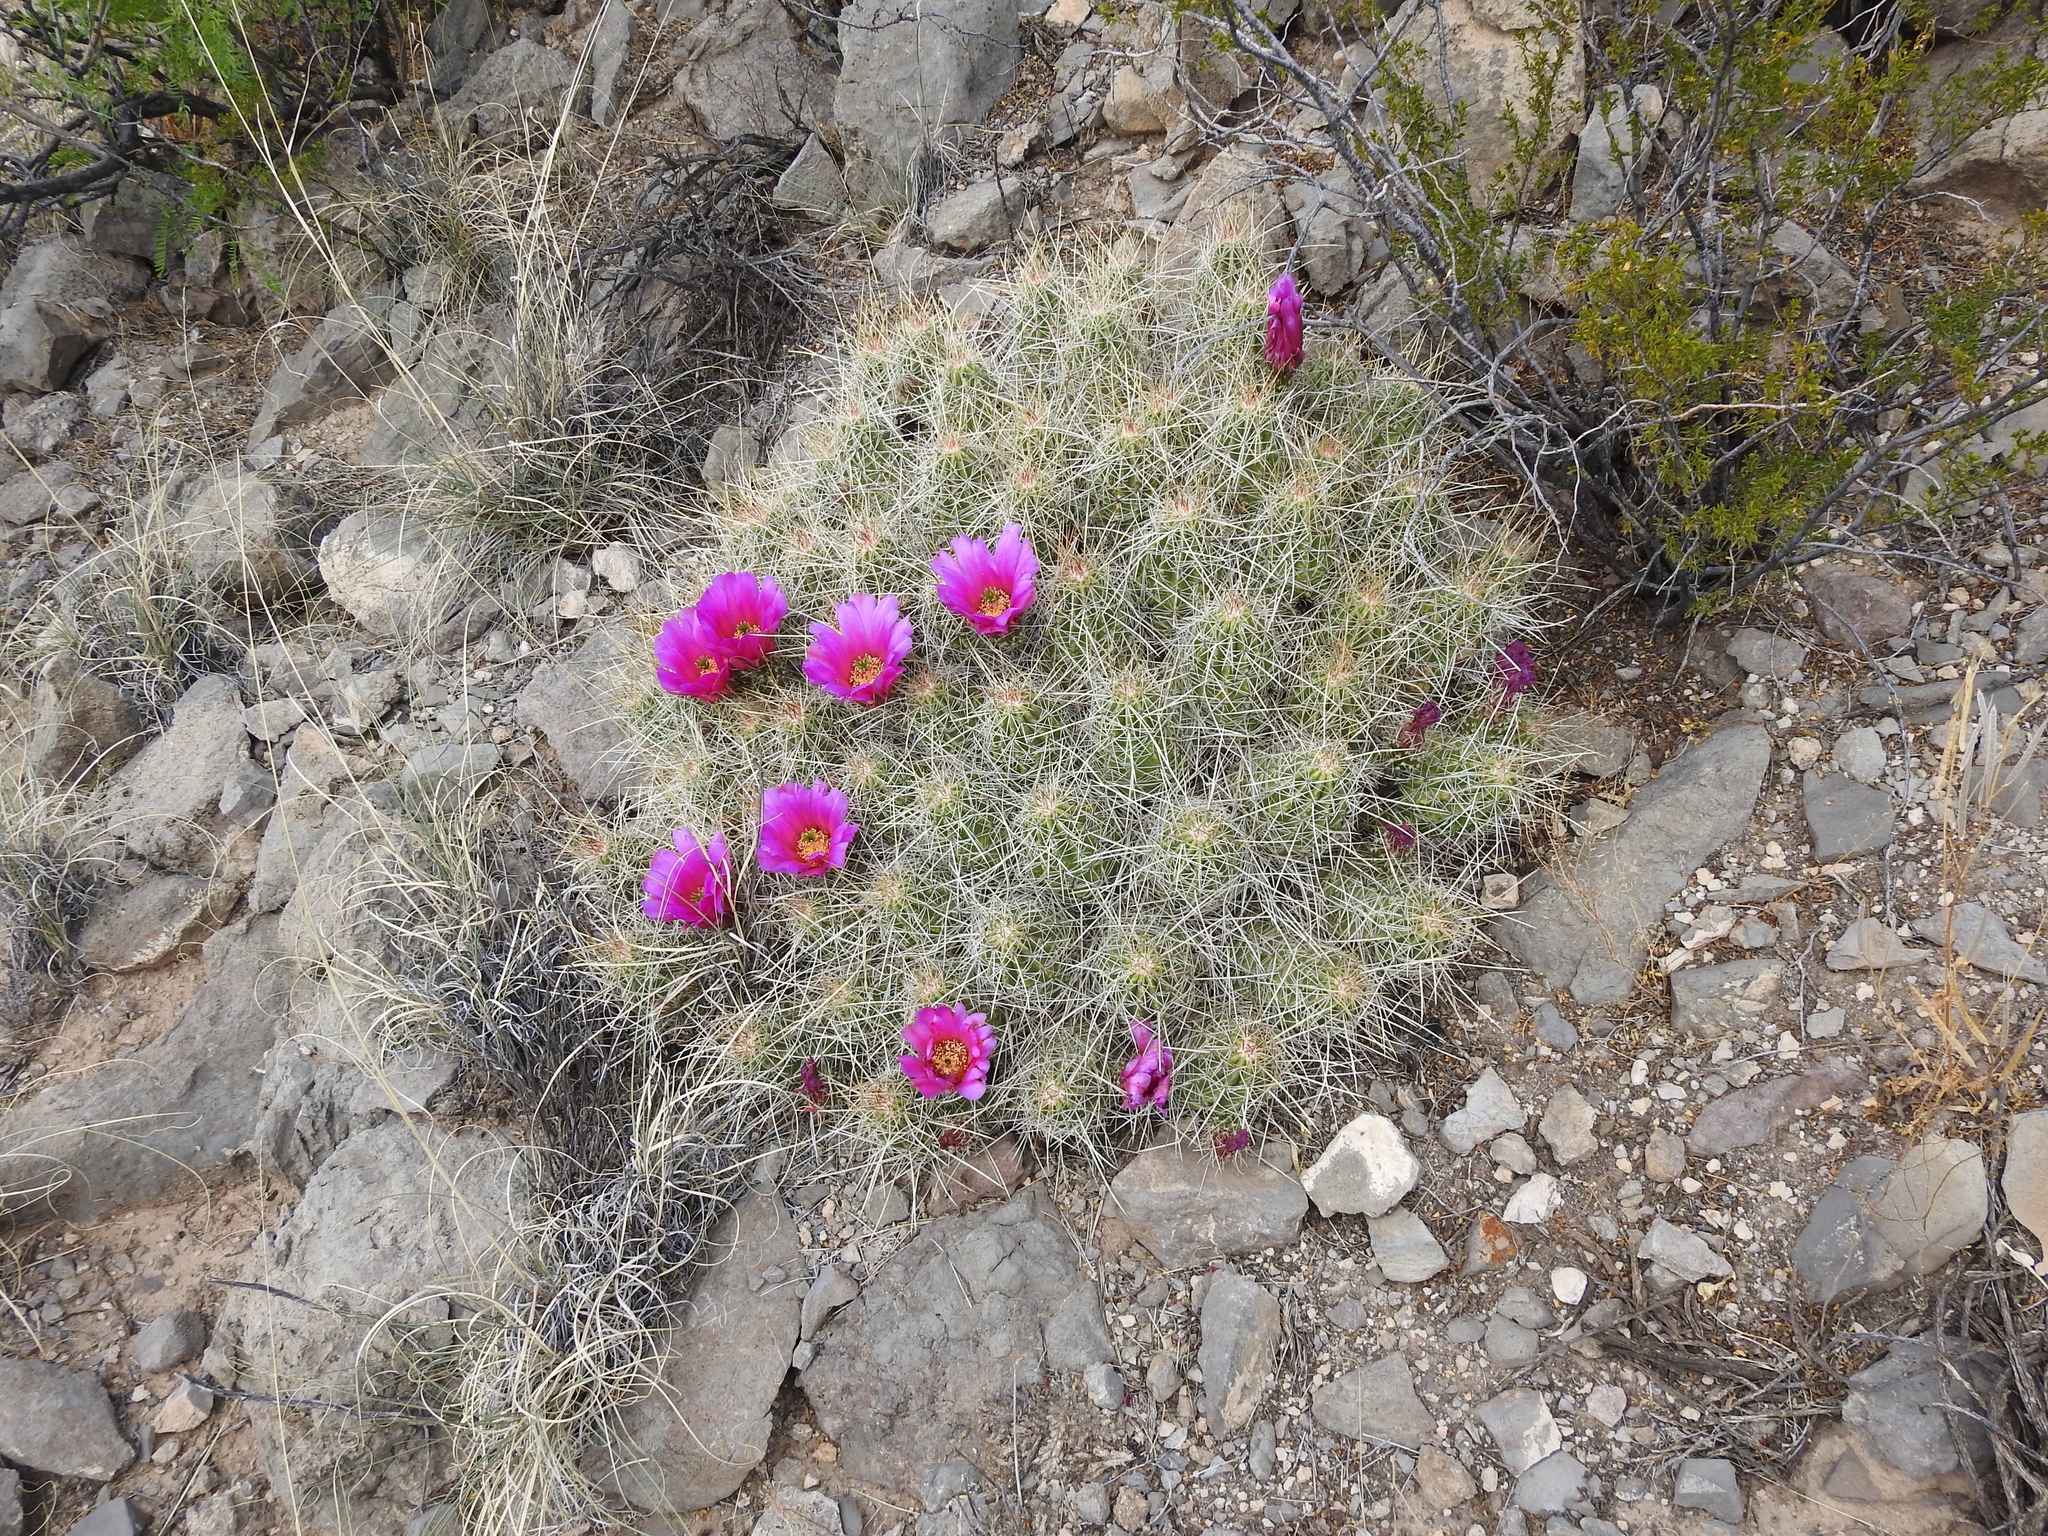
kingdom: Plantae
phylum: Tracheophyta
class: Magnoliopsida
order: Caryophyllales
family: Cactaceae
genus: Echinocereus
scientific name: Echinocereus stramineus
